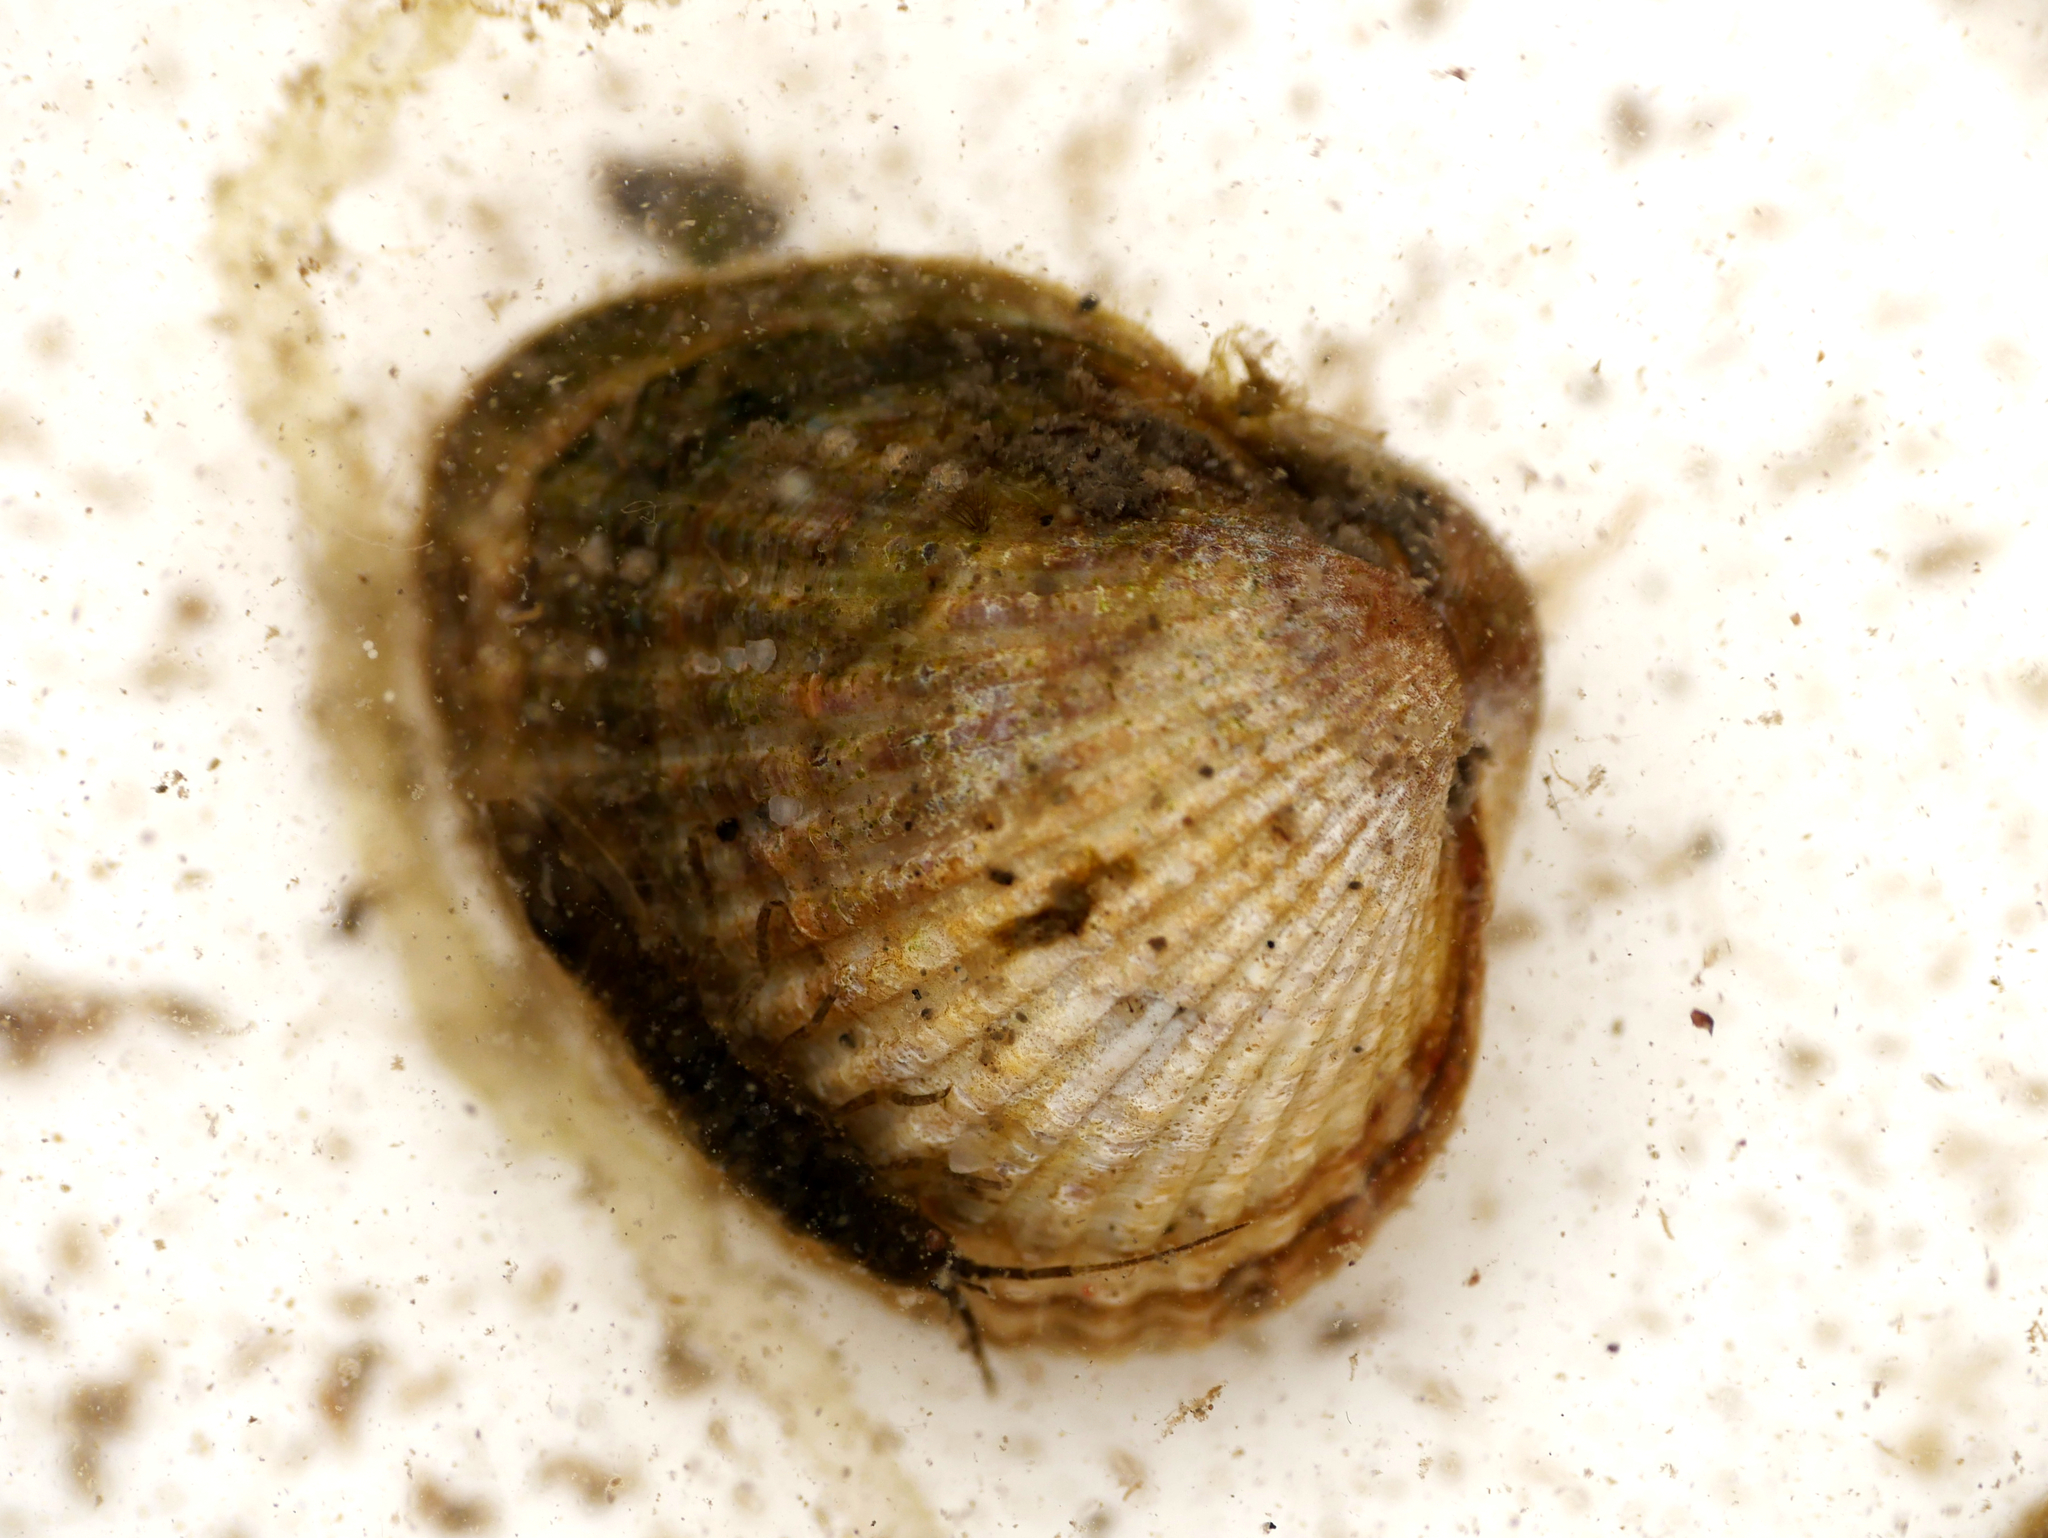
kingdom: Animalia
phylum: Mollusca
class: Bivalvia
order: Cardiida
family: Cardiidae
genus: Cerastoderma
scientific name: Cerastoderma glaucum
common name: Lagoon cockle
